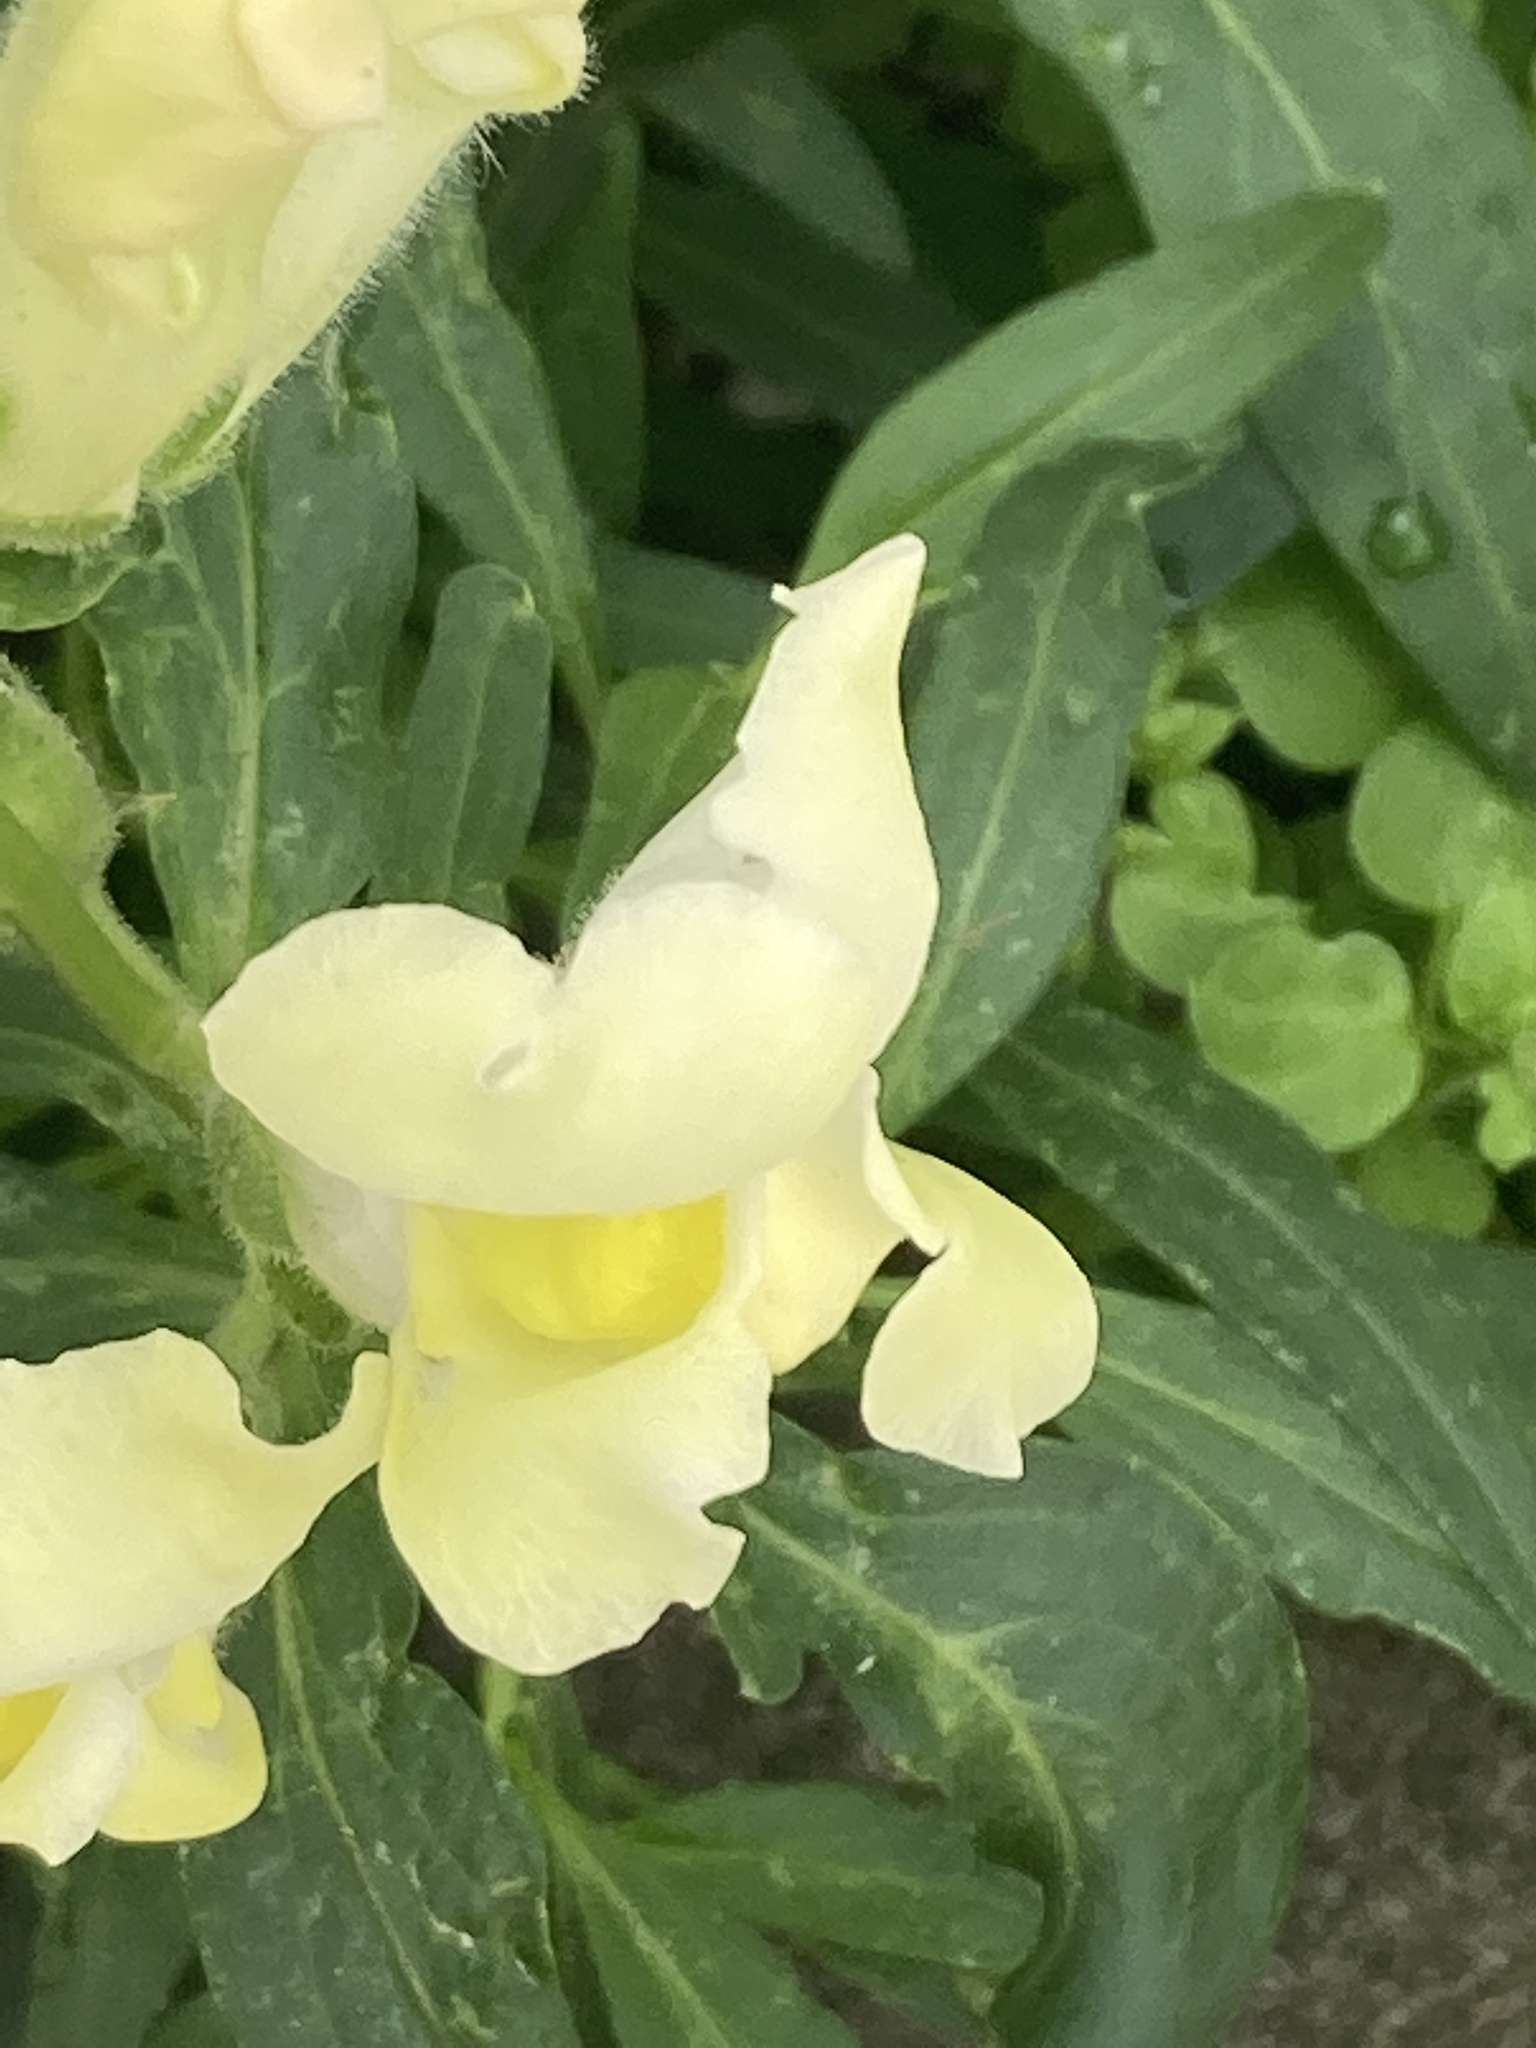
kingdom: Plantae
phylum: Tracheophyta
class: Magnoliopsida
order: Lamiales
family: Plantaginaceae
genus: Antirrhinum
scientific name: Antirrhinum majus
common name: Snapdragon
